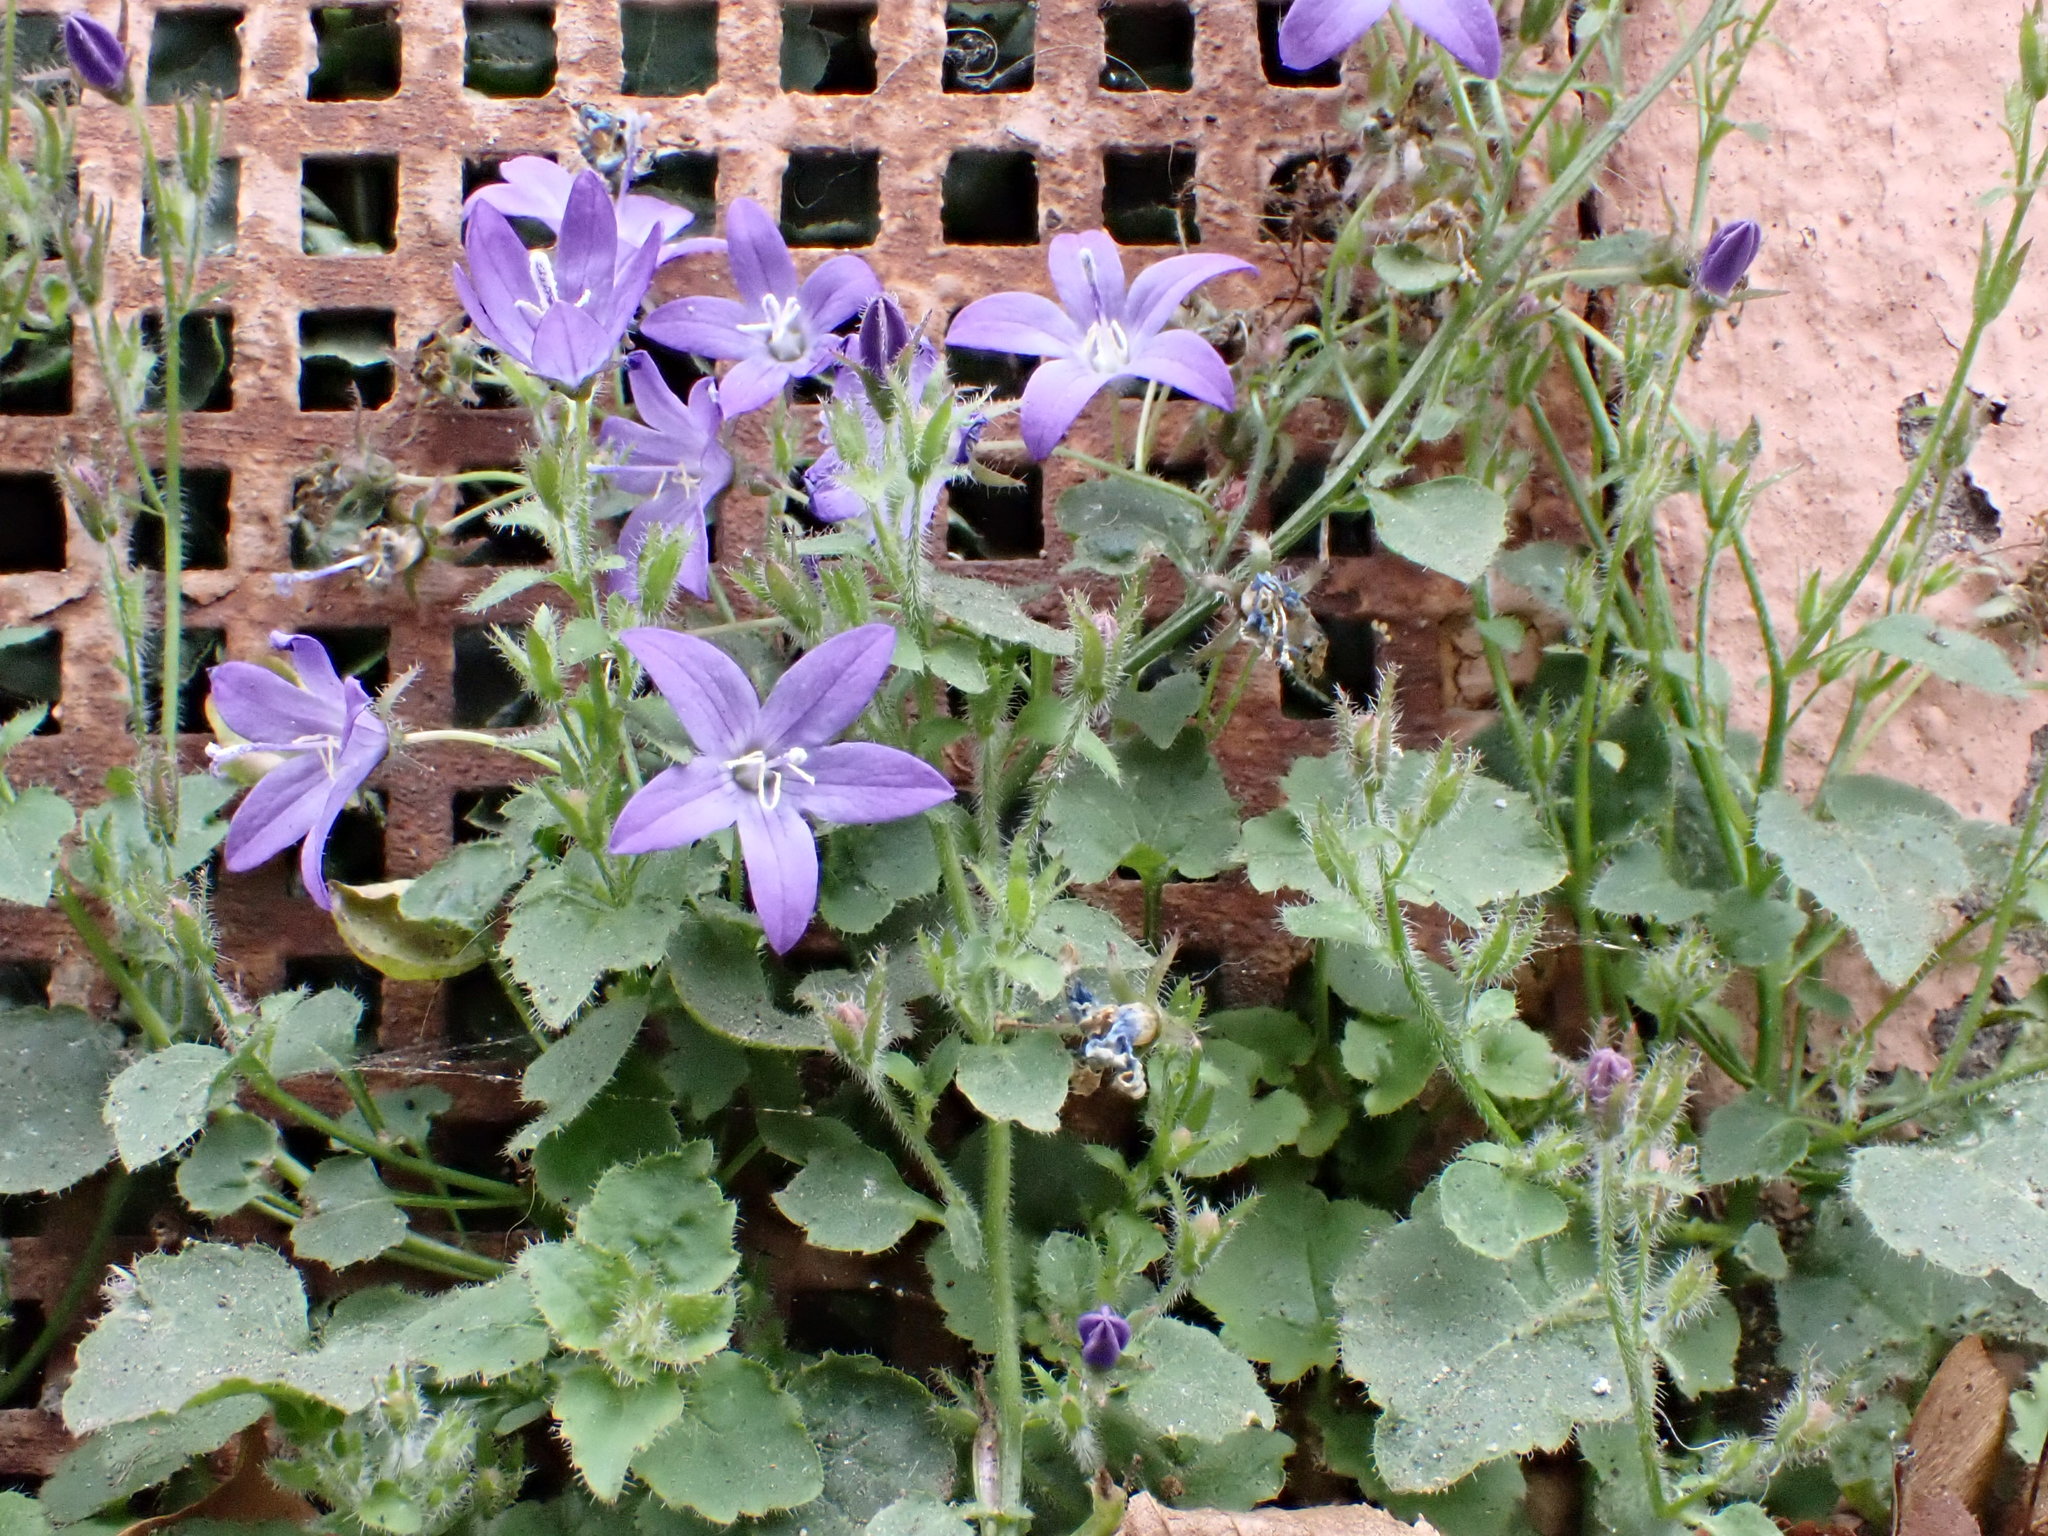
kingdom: Plantae
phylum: Tracheophyta
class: Magnoliopsida
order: Asterales
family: Campanulaceae
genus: Campanula
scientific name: Campanula poscharskyana
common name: Trailing bellflower
